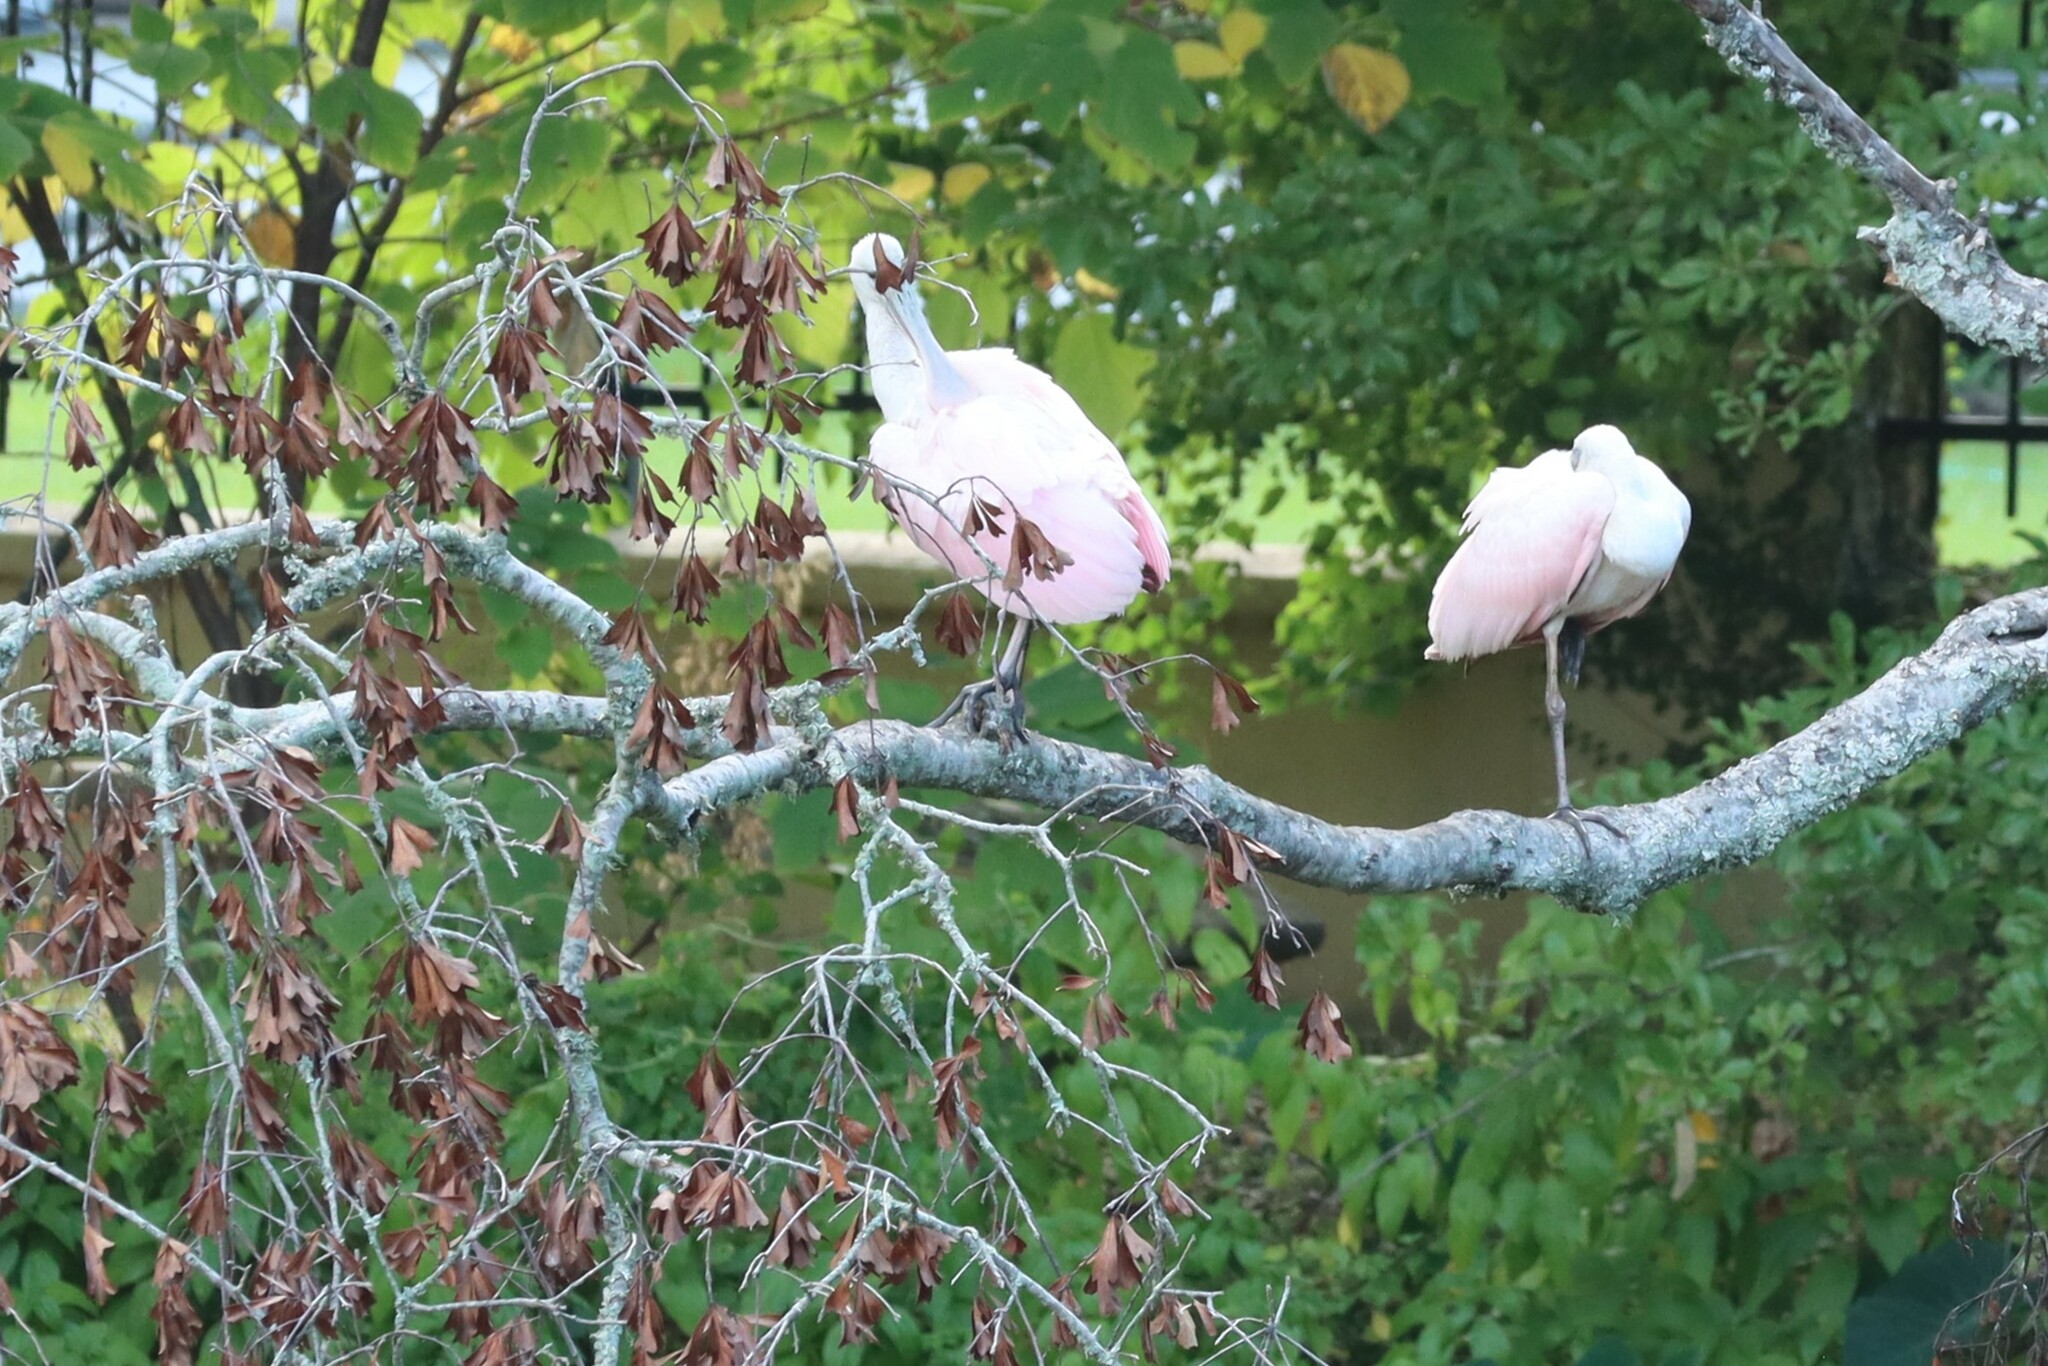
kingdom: Animalia
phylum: Chordata
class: Aves
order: Pelecaniformes
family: Threskiornithidae
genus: Platalea
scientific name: Platalea ajaja
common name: Roseate spoonbill
